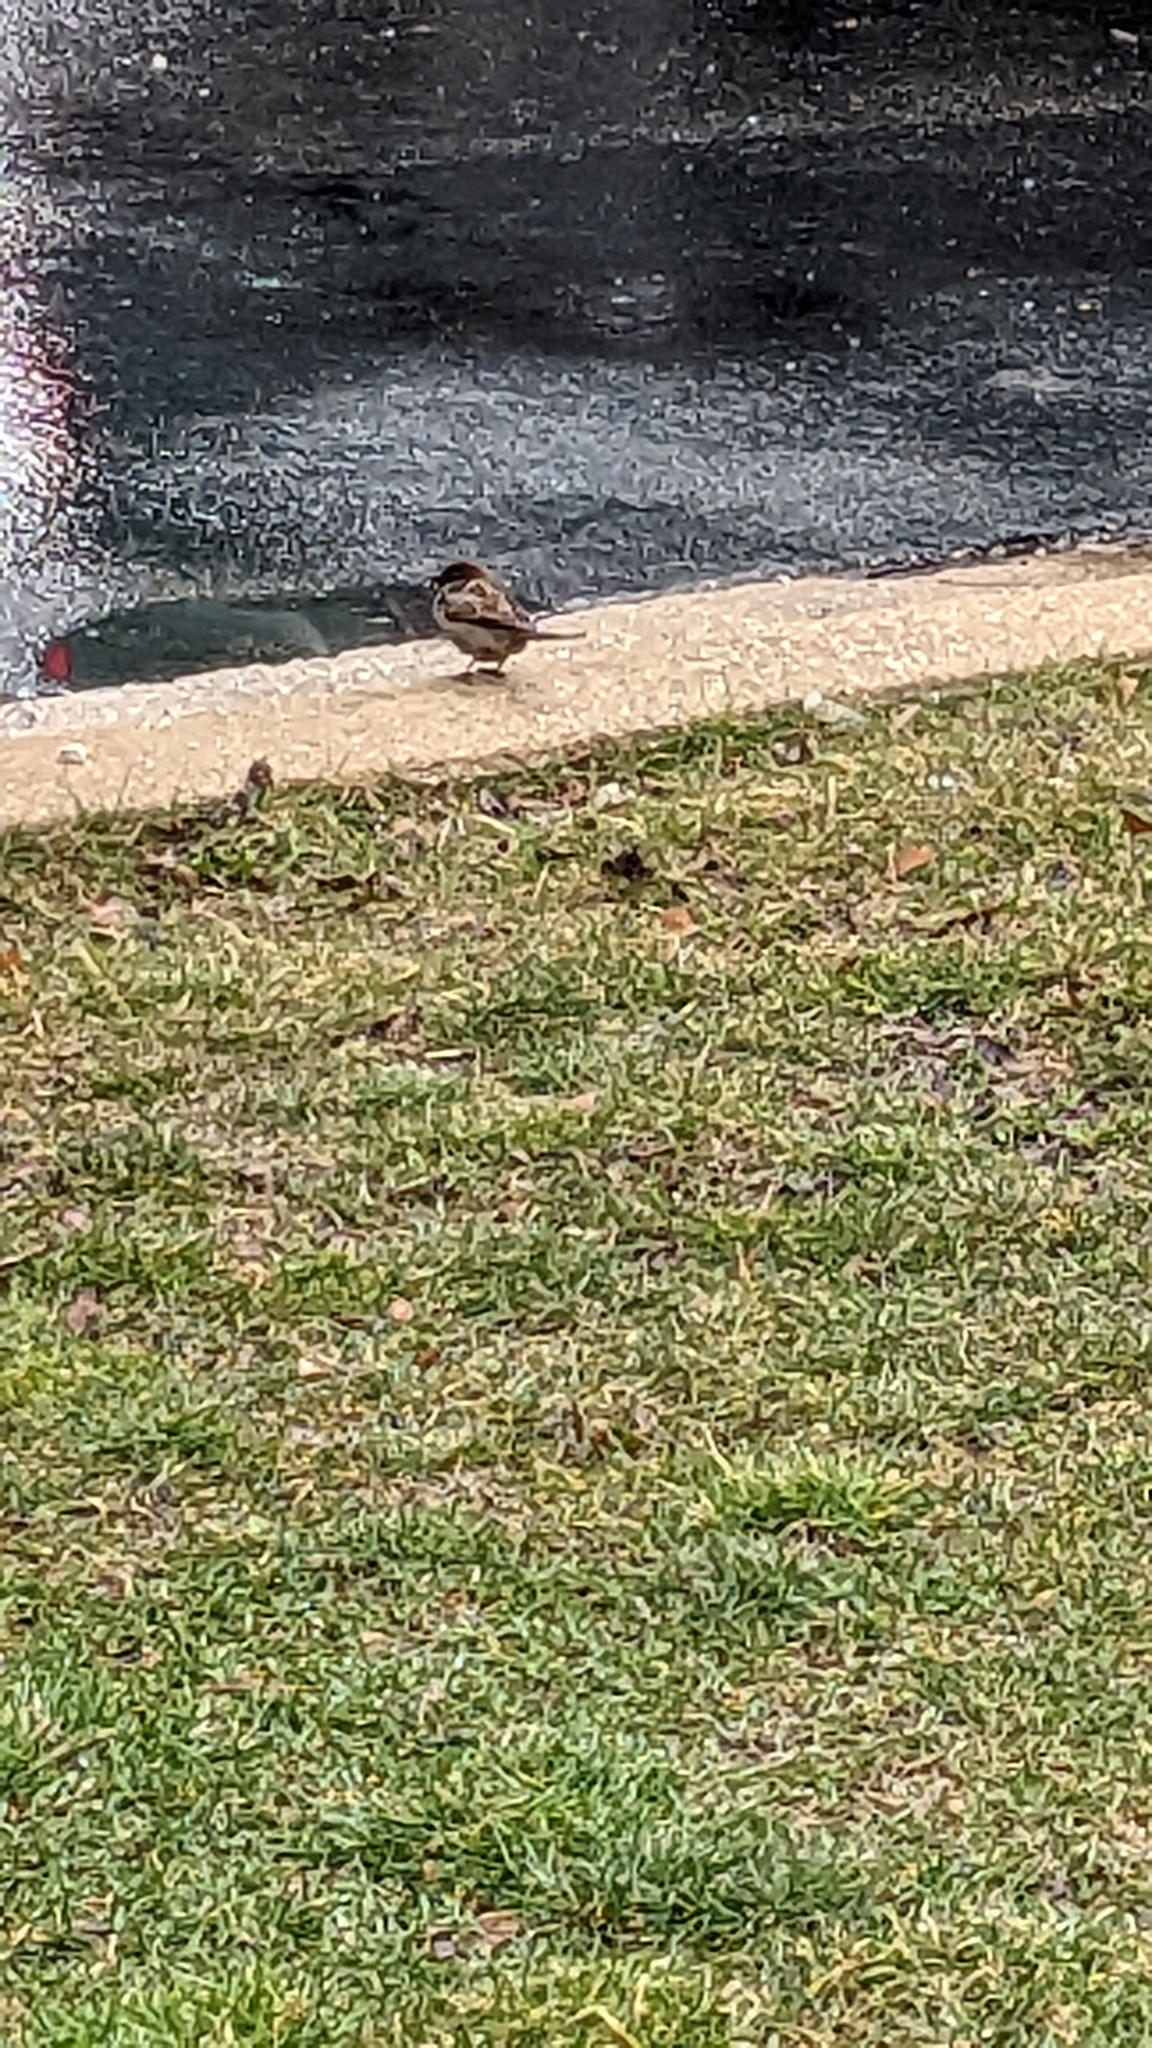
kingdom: Animalia
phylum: Chordata
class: Aves
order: Passeriformes
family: Passeridae
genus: Passer
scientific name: Passer domesticus
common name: House sparrow
